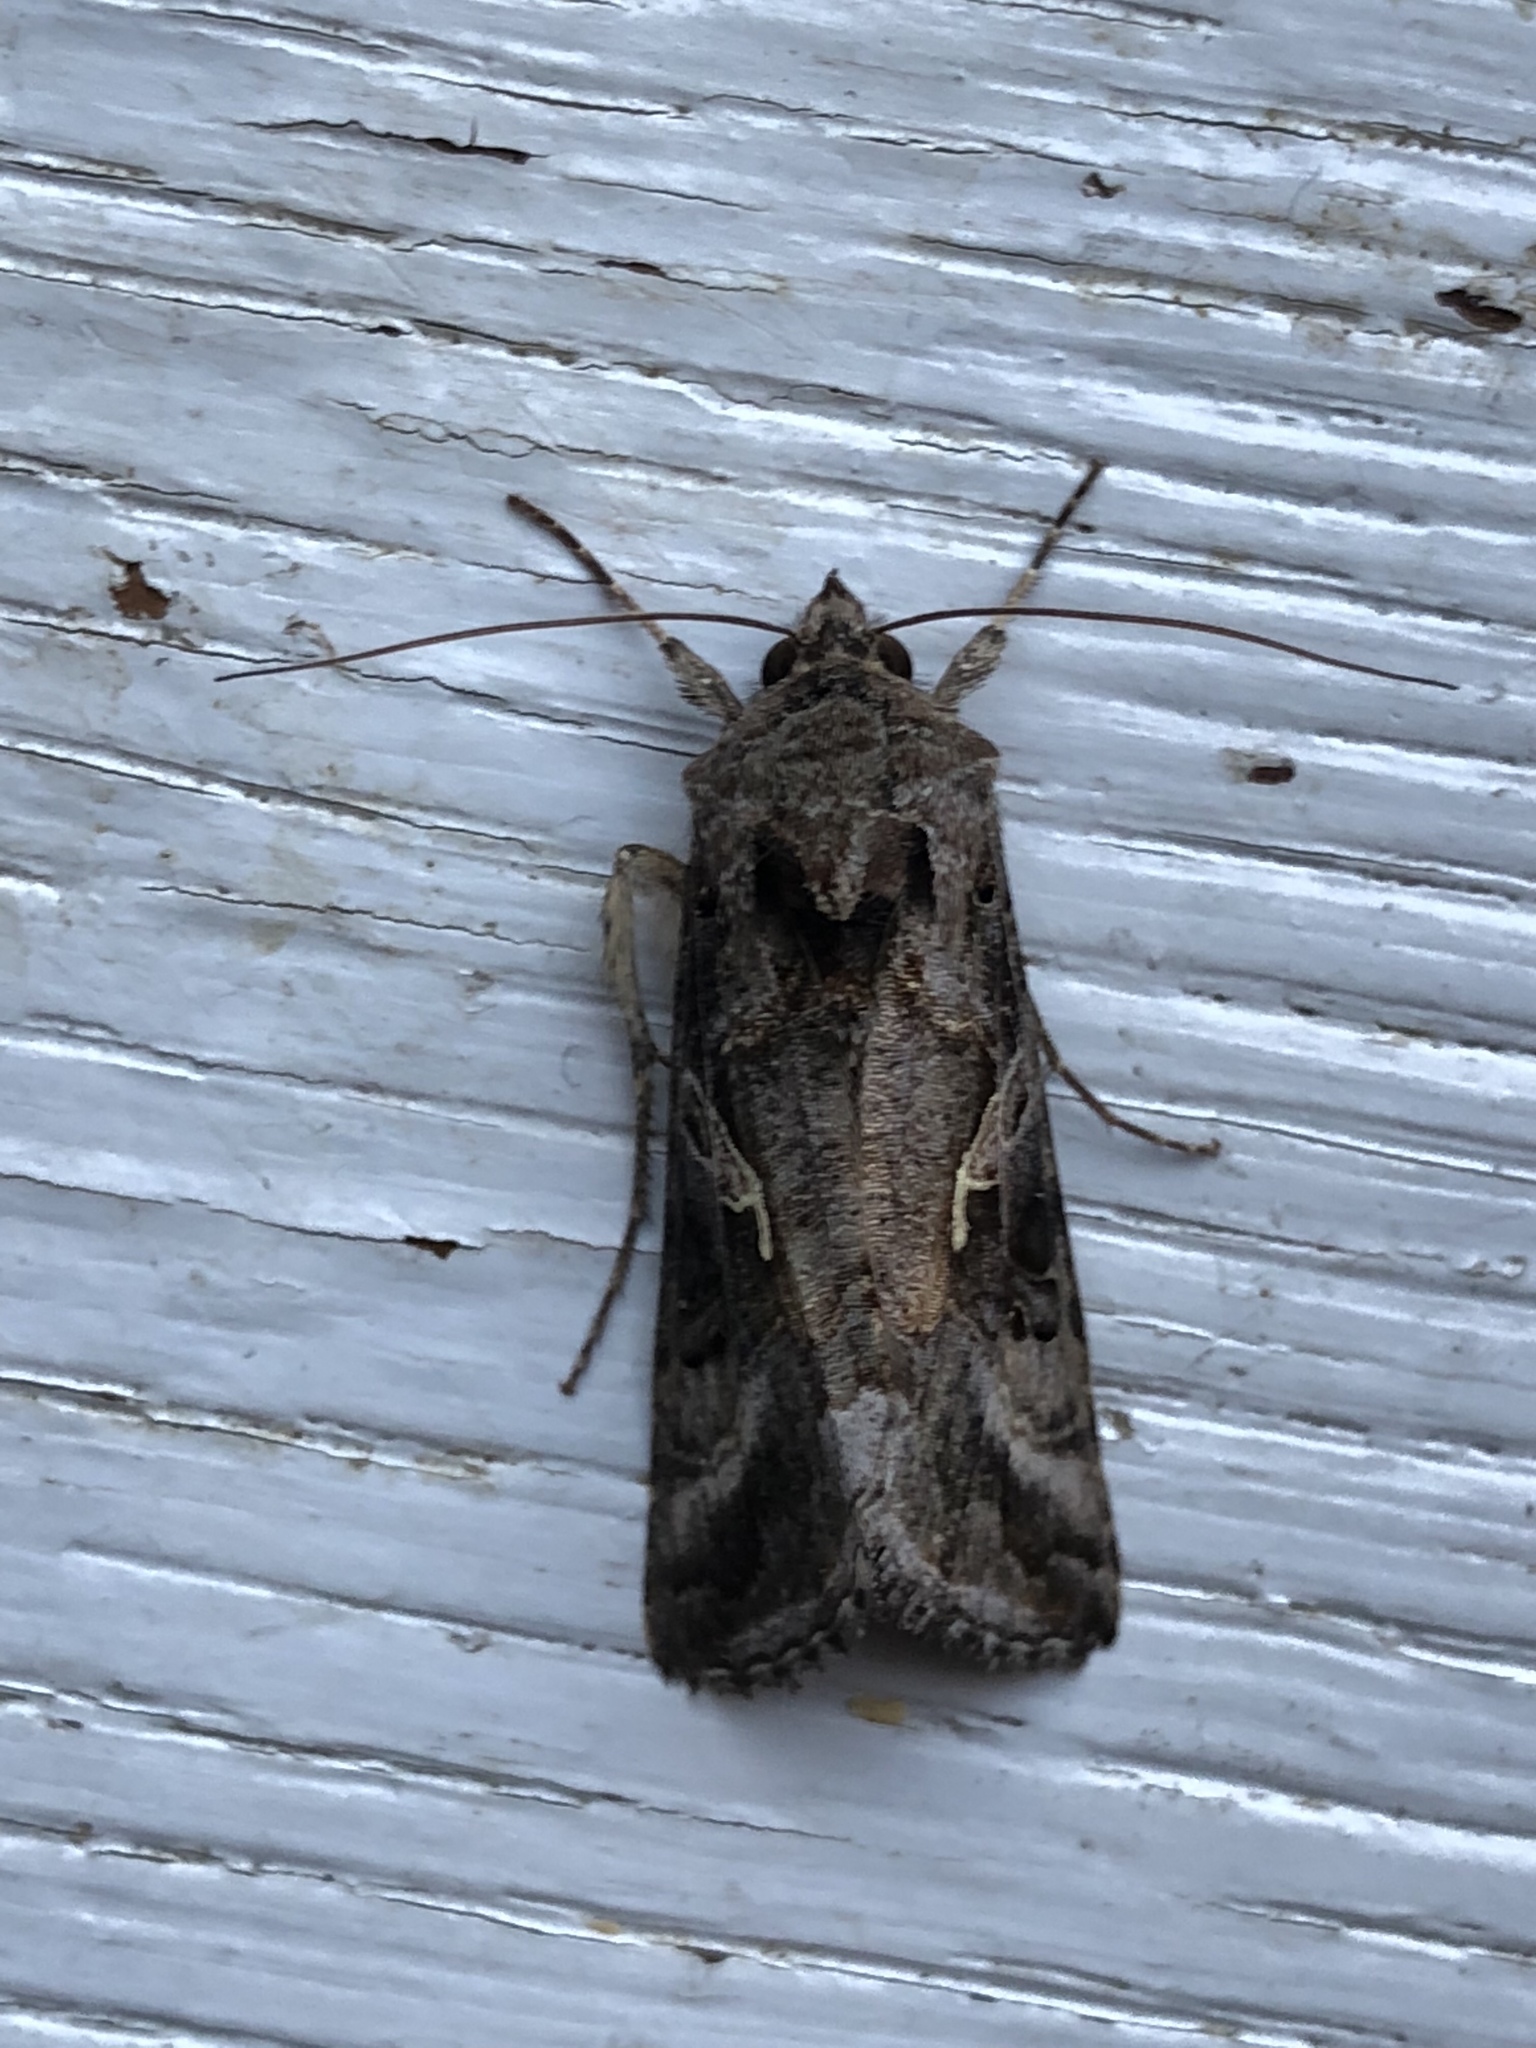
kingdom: Animalia
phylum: Arthropoda
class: Insecta
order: Lepidoptera
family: Noctuidae
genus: Autographa
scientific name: Autographa gamma
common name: Silver y
